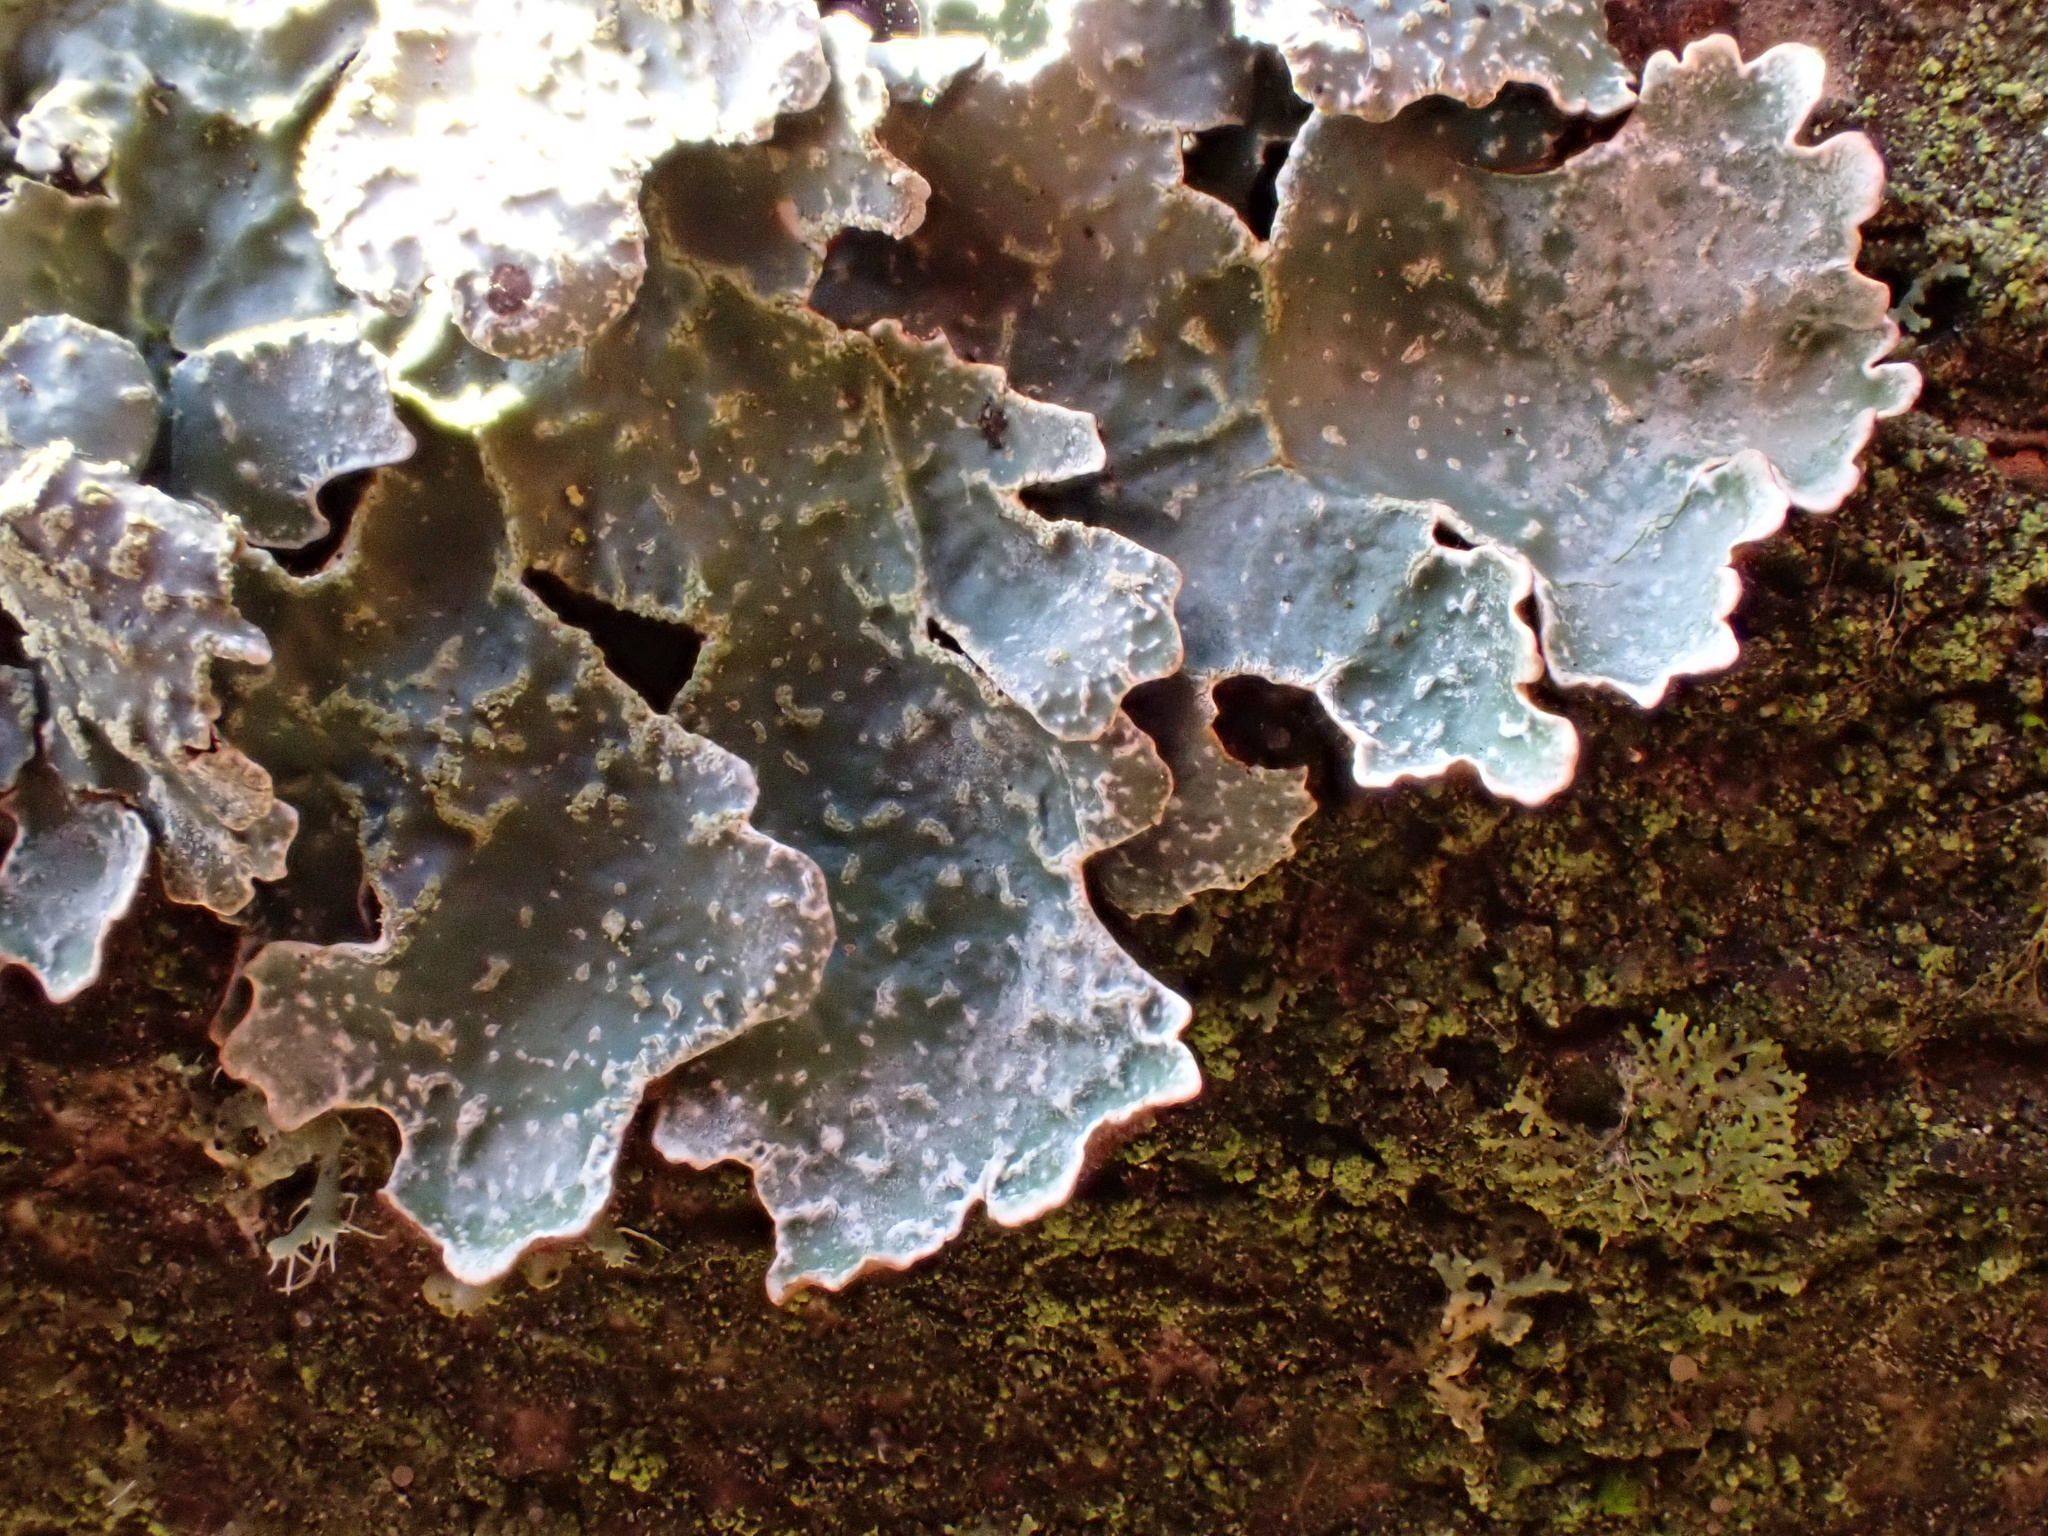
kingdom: Fungi
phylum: Ascomycota
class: Lecanoromycetes
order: Lecanorales
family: Parmeliaceae
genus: Parmelia
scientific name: Parmelia sulcata
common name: Netted shield lichen
